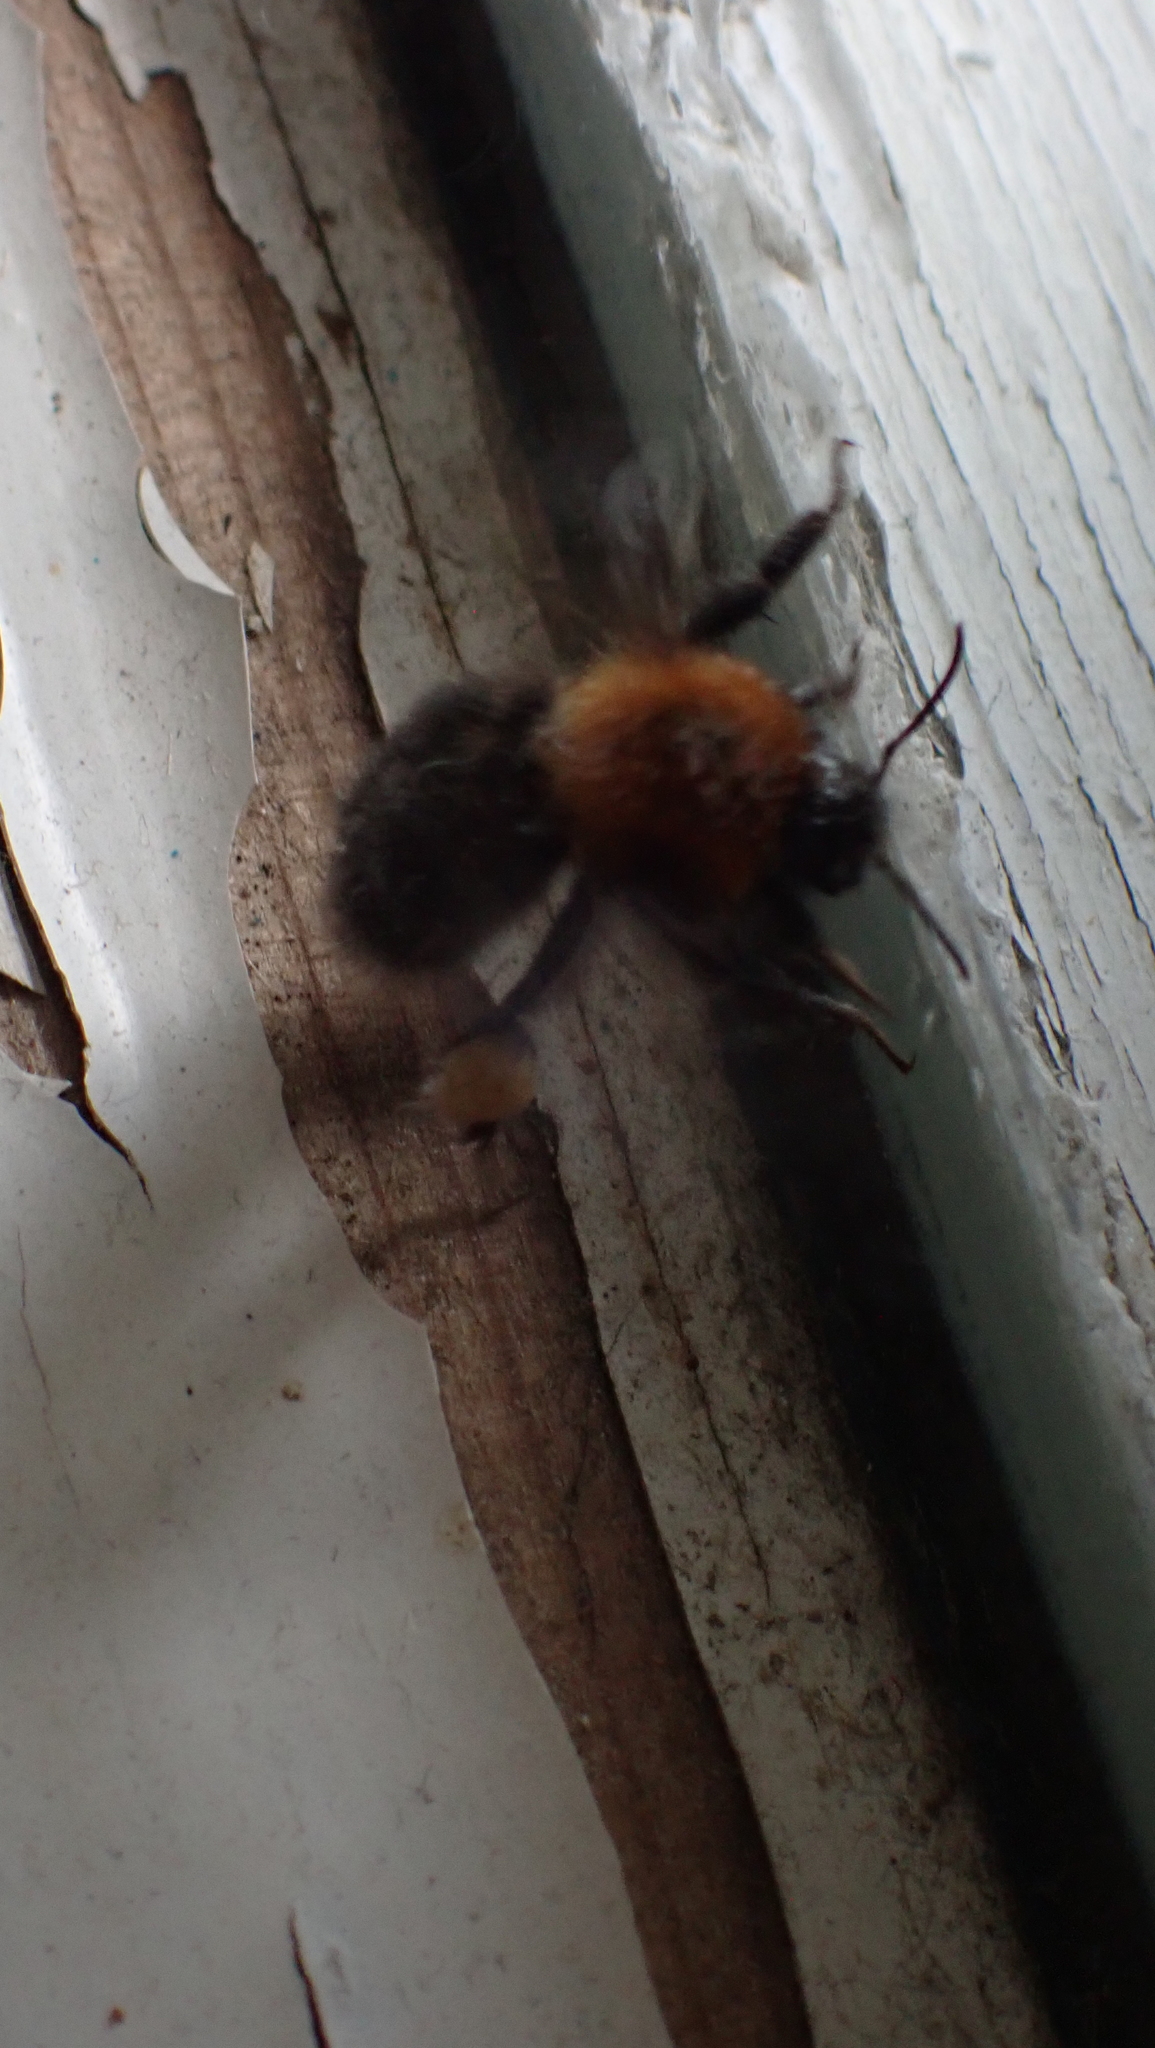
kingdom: Animalia
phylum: Arthropoda
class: Insecta
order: Hymenoptera
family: Apidae
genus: Bombus
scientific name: Bombus hypnorum
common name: New garden bumblebee
